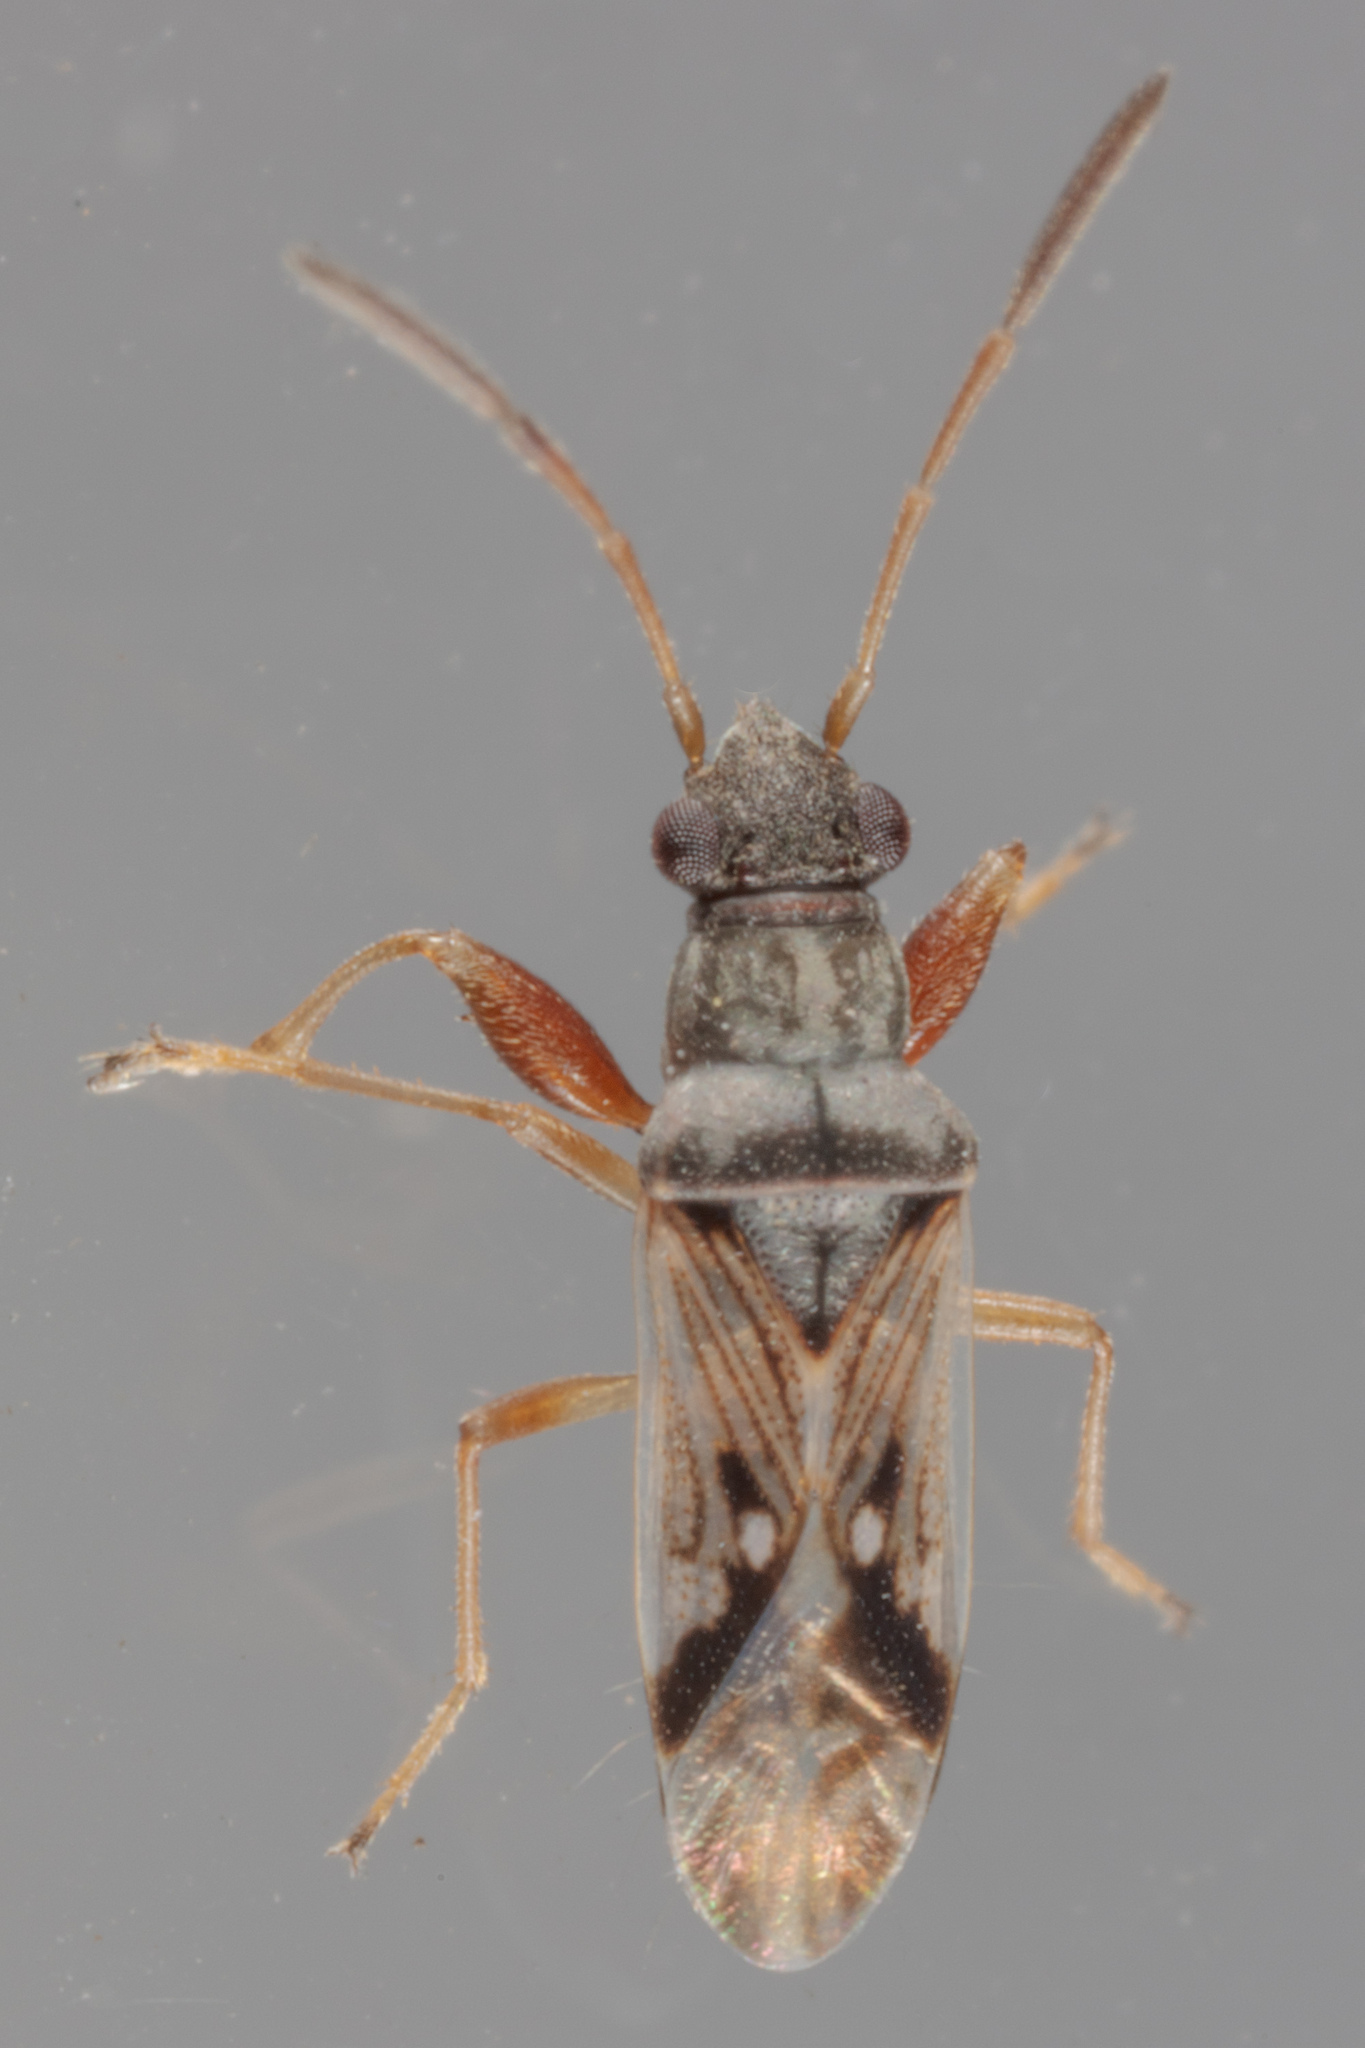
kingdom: Animalia
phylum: Arthropoda
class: Insecta
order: Hemiptera
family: Rhyparochromidae
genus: Pseudopachybrachius
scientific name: Pseudopachybrachius vinctus
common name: Dirt-colored seed bug
